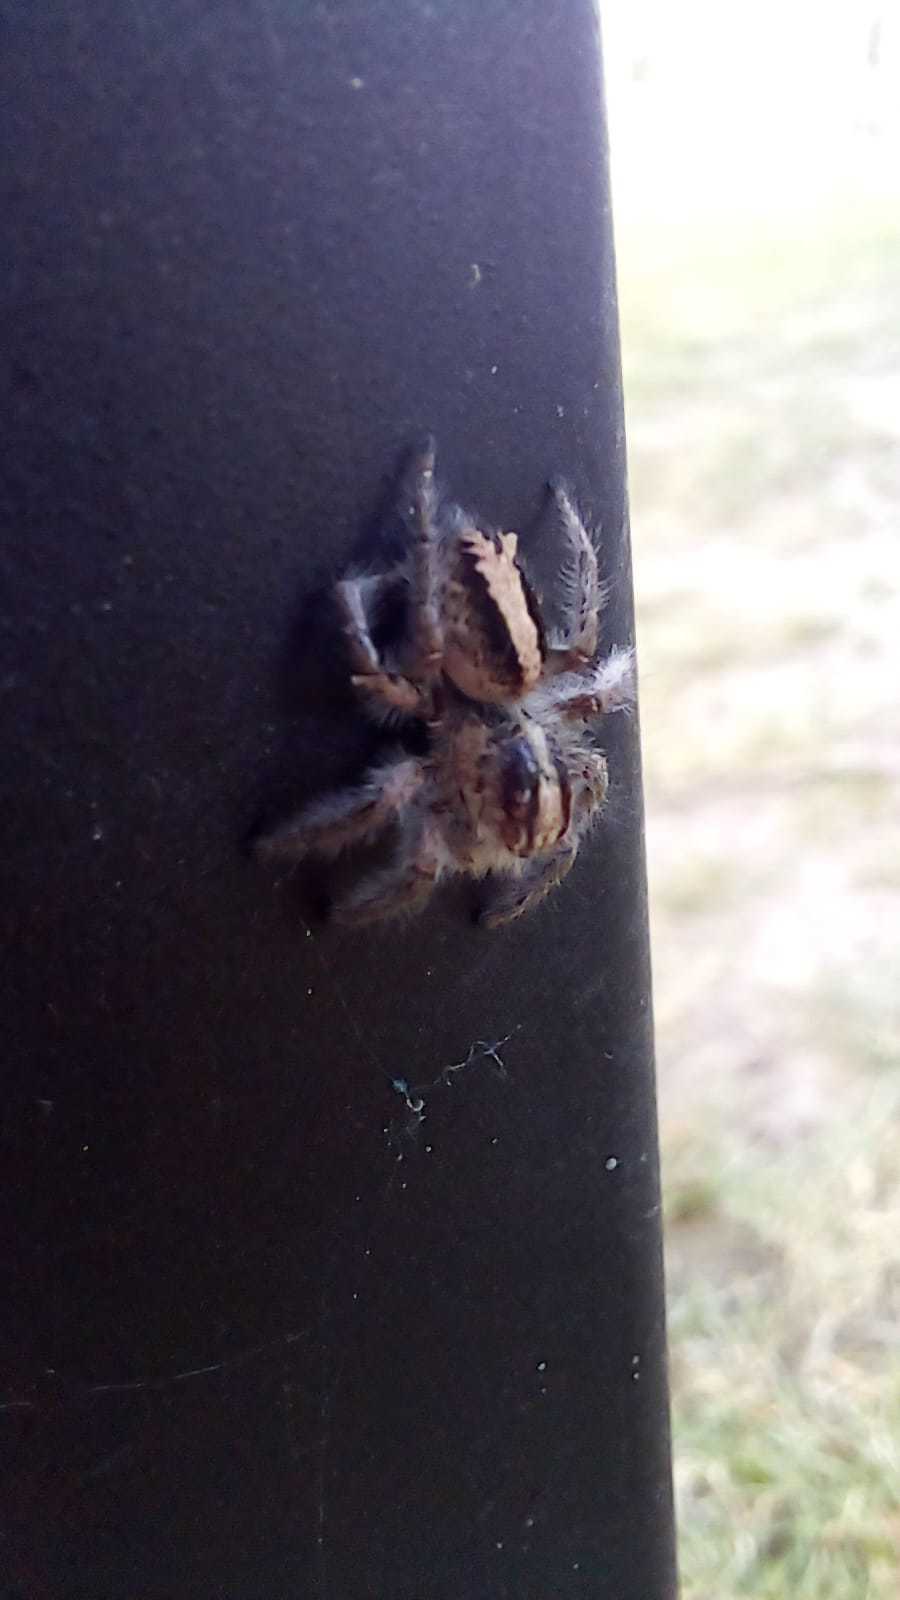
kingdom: Animalia
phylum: Arthropoda
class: Arachnida
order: Araneae
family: Salticidae
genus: Megafreya
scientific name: Megafreya sutrix
